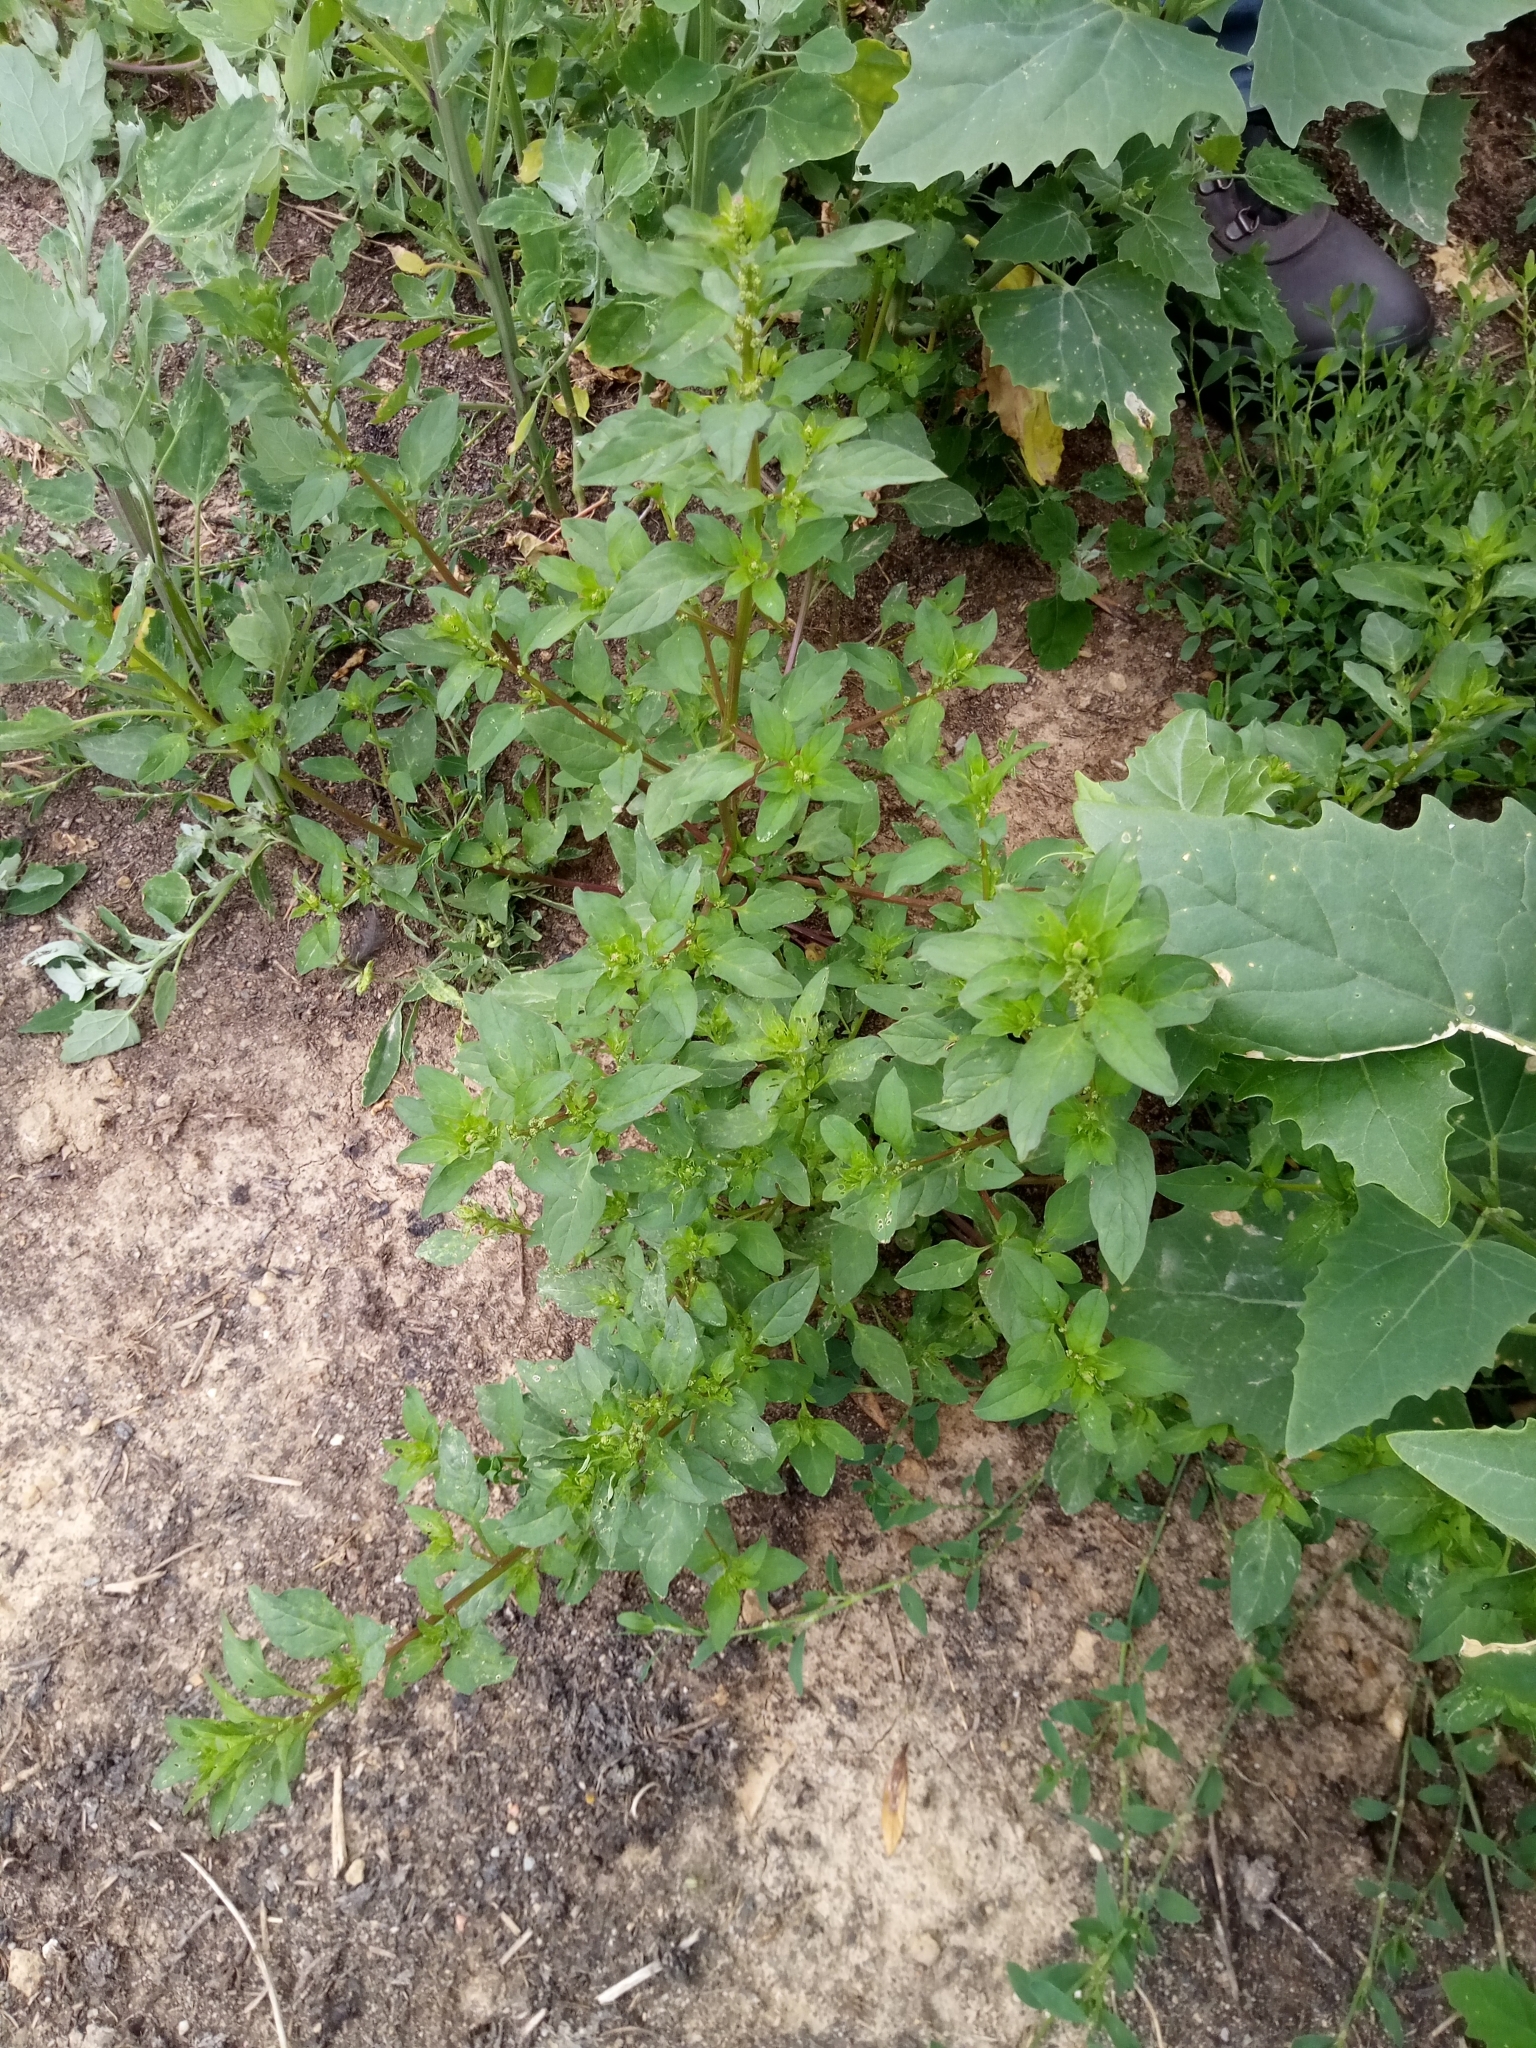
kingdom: Plantae
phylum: Tracheophyta
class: Magnoliopsida
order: Caryophyllales
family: Amaranthaceae
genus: Lipandra
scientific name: Lipandra polysperma
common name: Many-seed goosefoot
